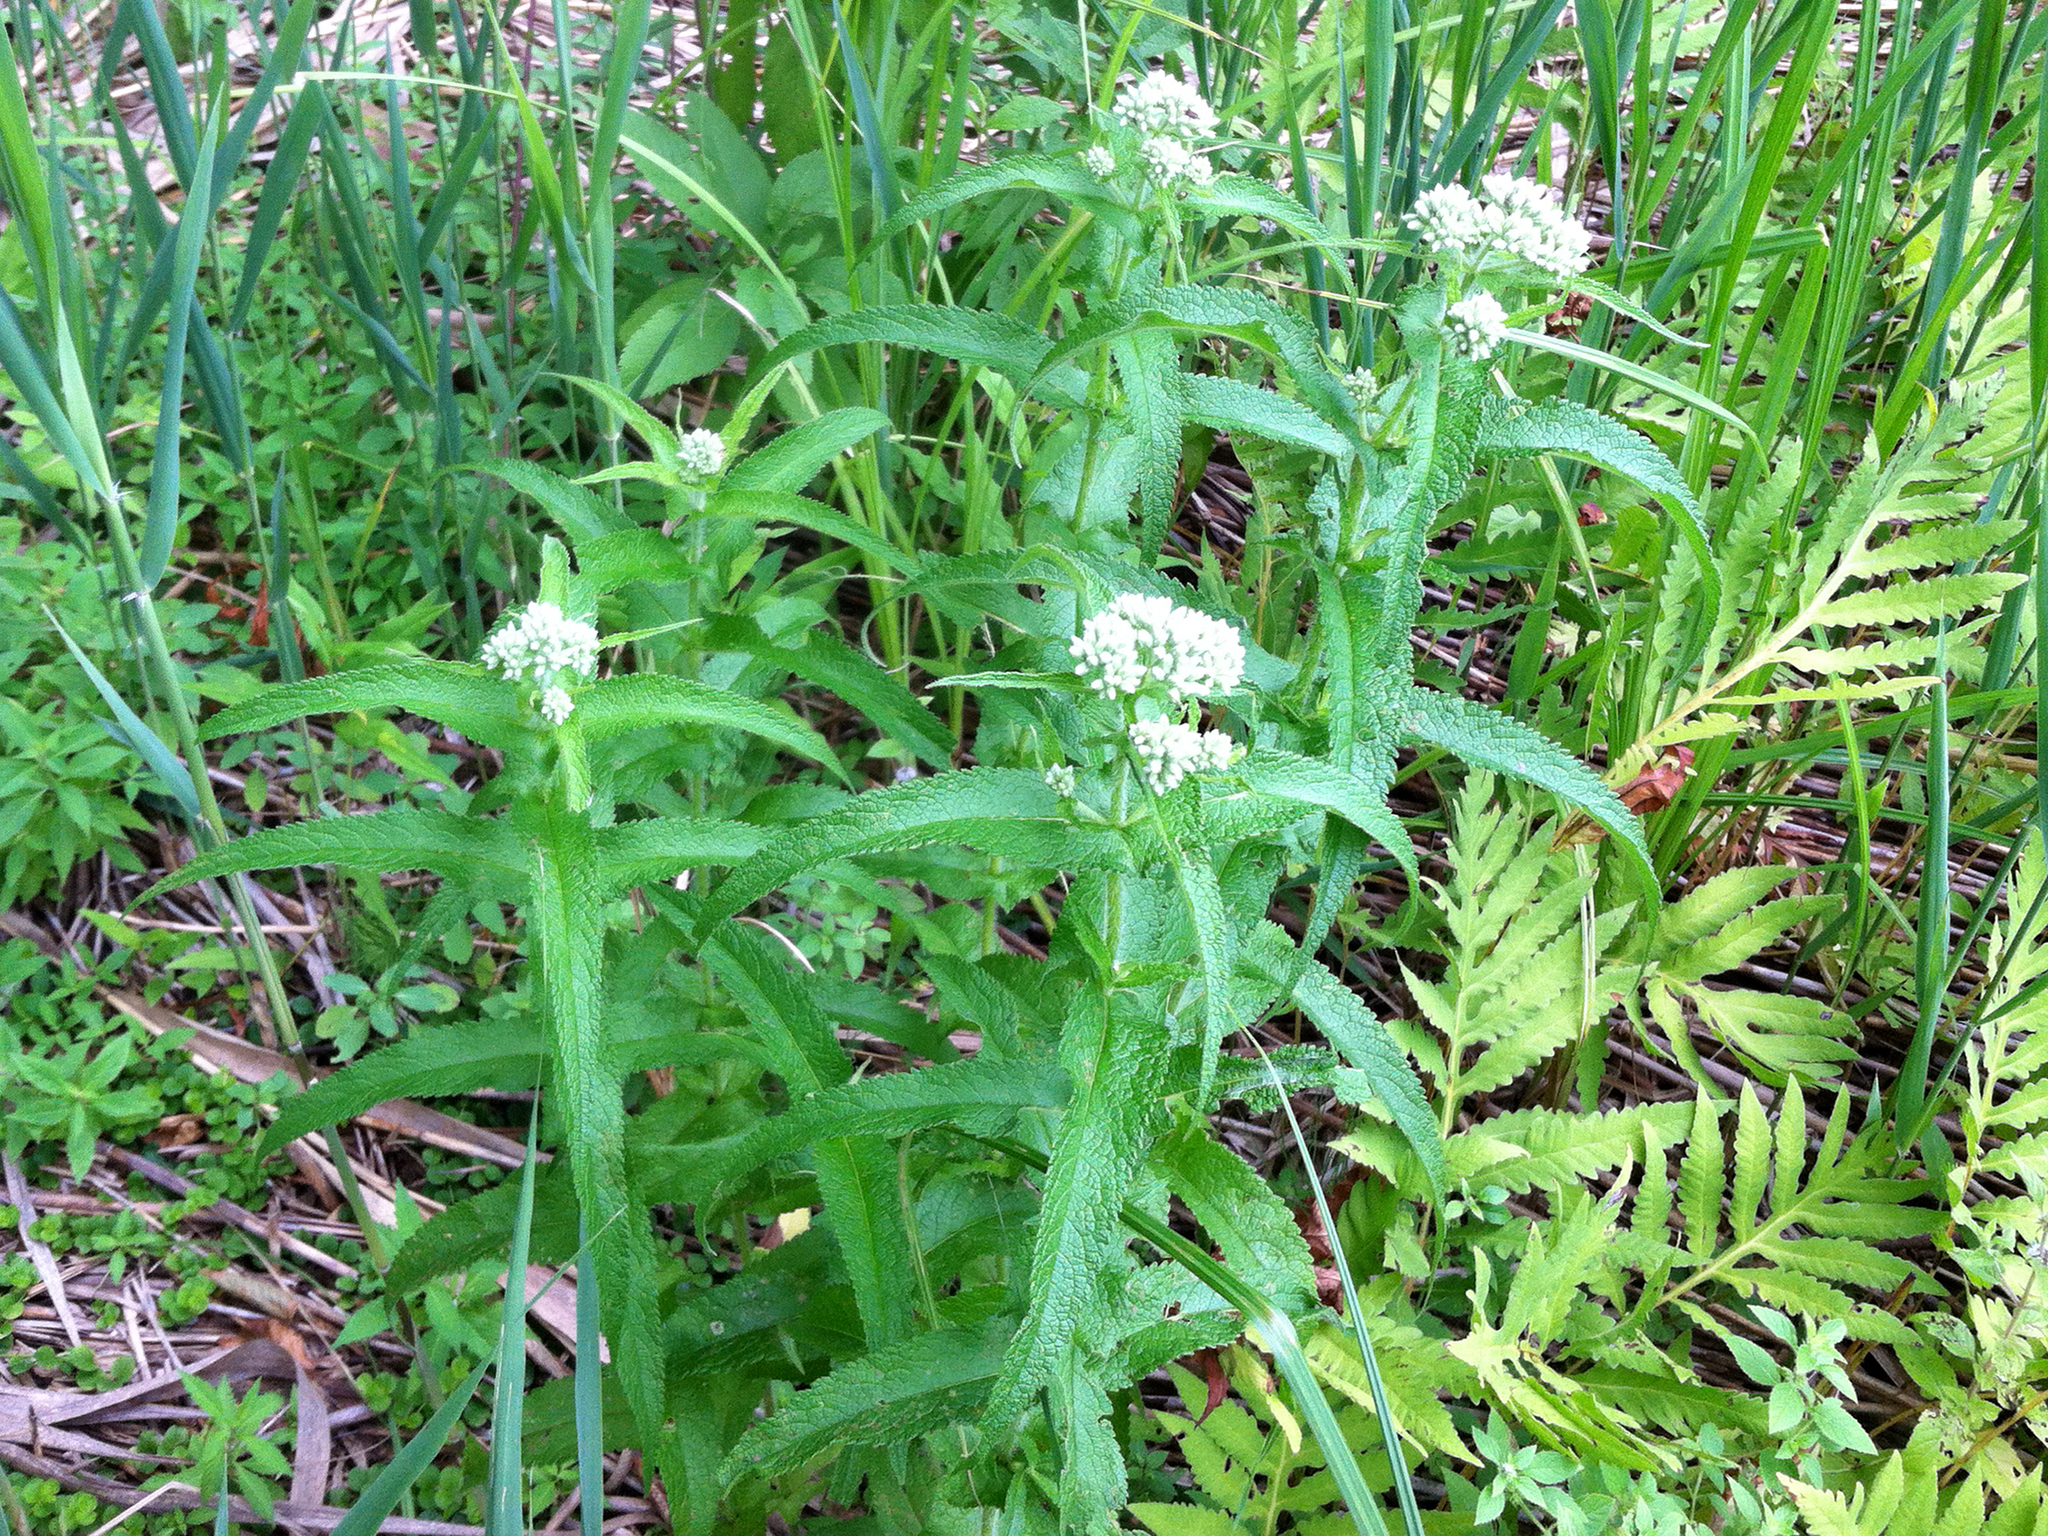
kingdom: Plantae
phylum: Tracheophyta
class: Magnoliopsida
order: Asterales
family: Asteraceae
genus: Eupatorium
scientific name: Eupatorium perfoliatum
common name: Boneset
